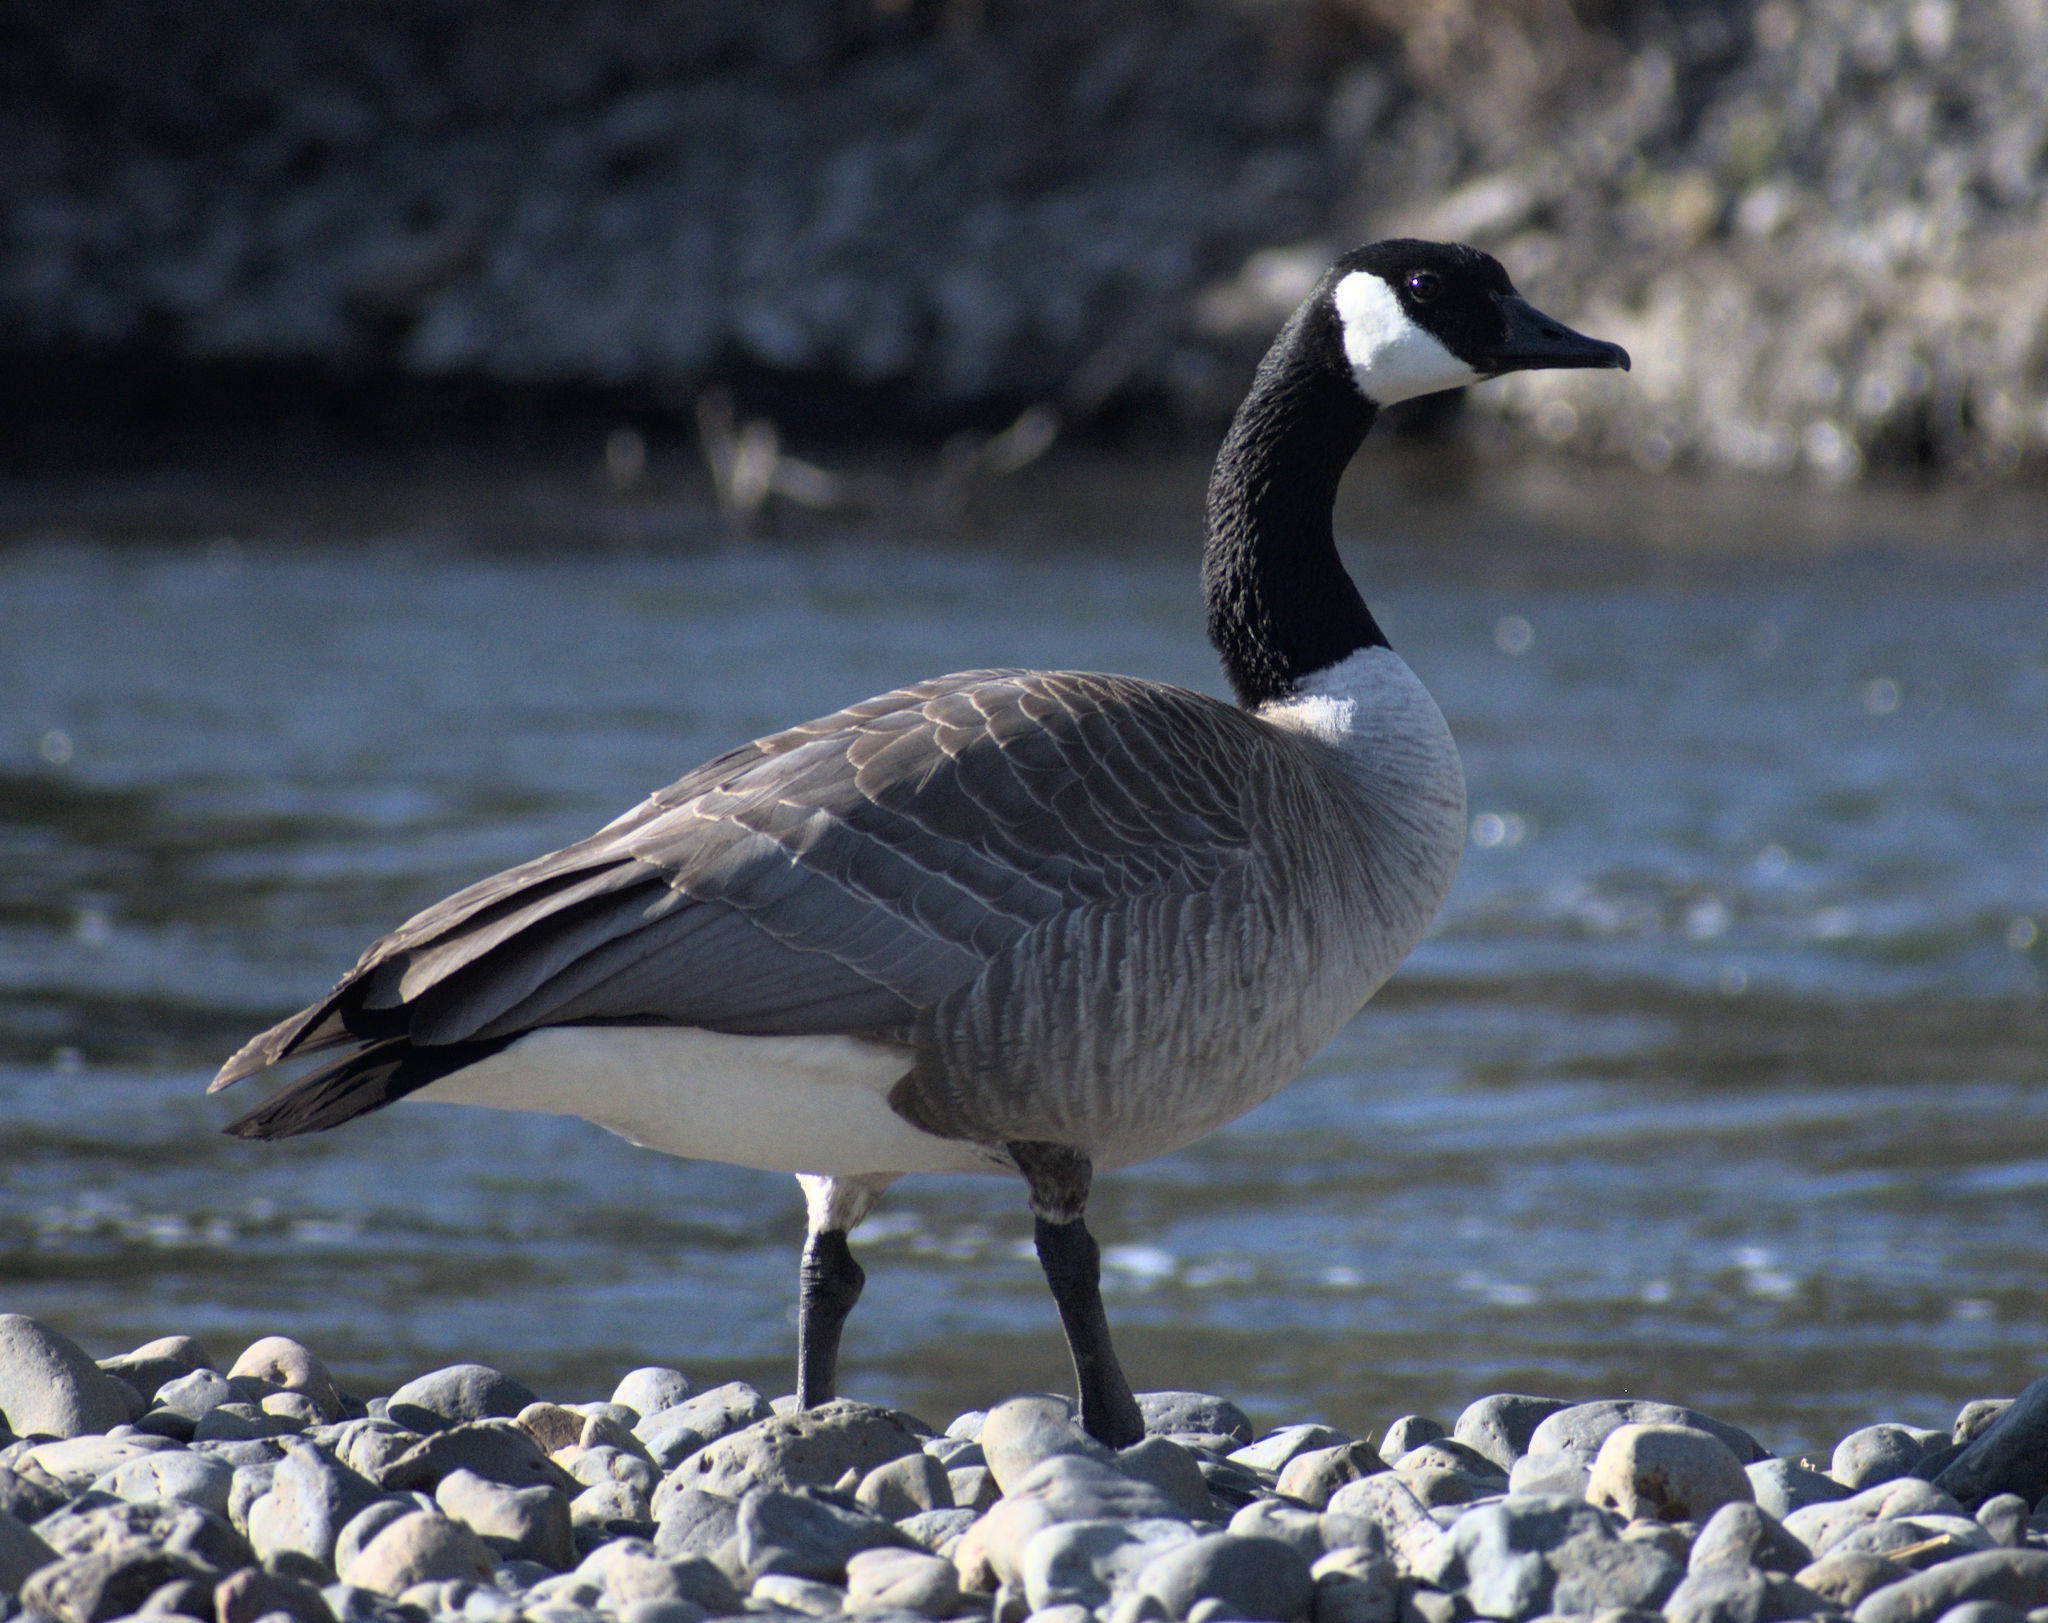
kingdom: Animalia
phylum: Chordata
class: Aves
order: Anseriformes
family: Anatidae
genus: Branta
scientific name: Branta canadensis
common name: Canada goose
